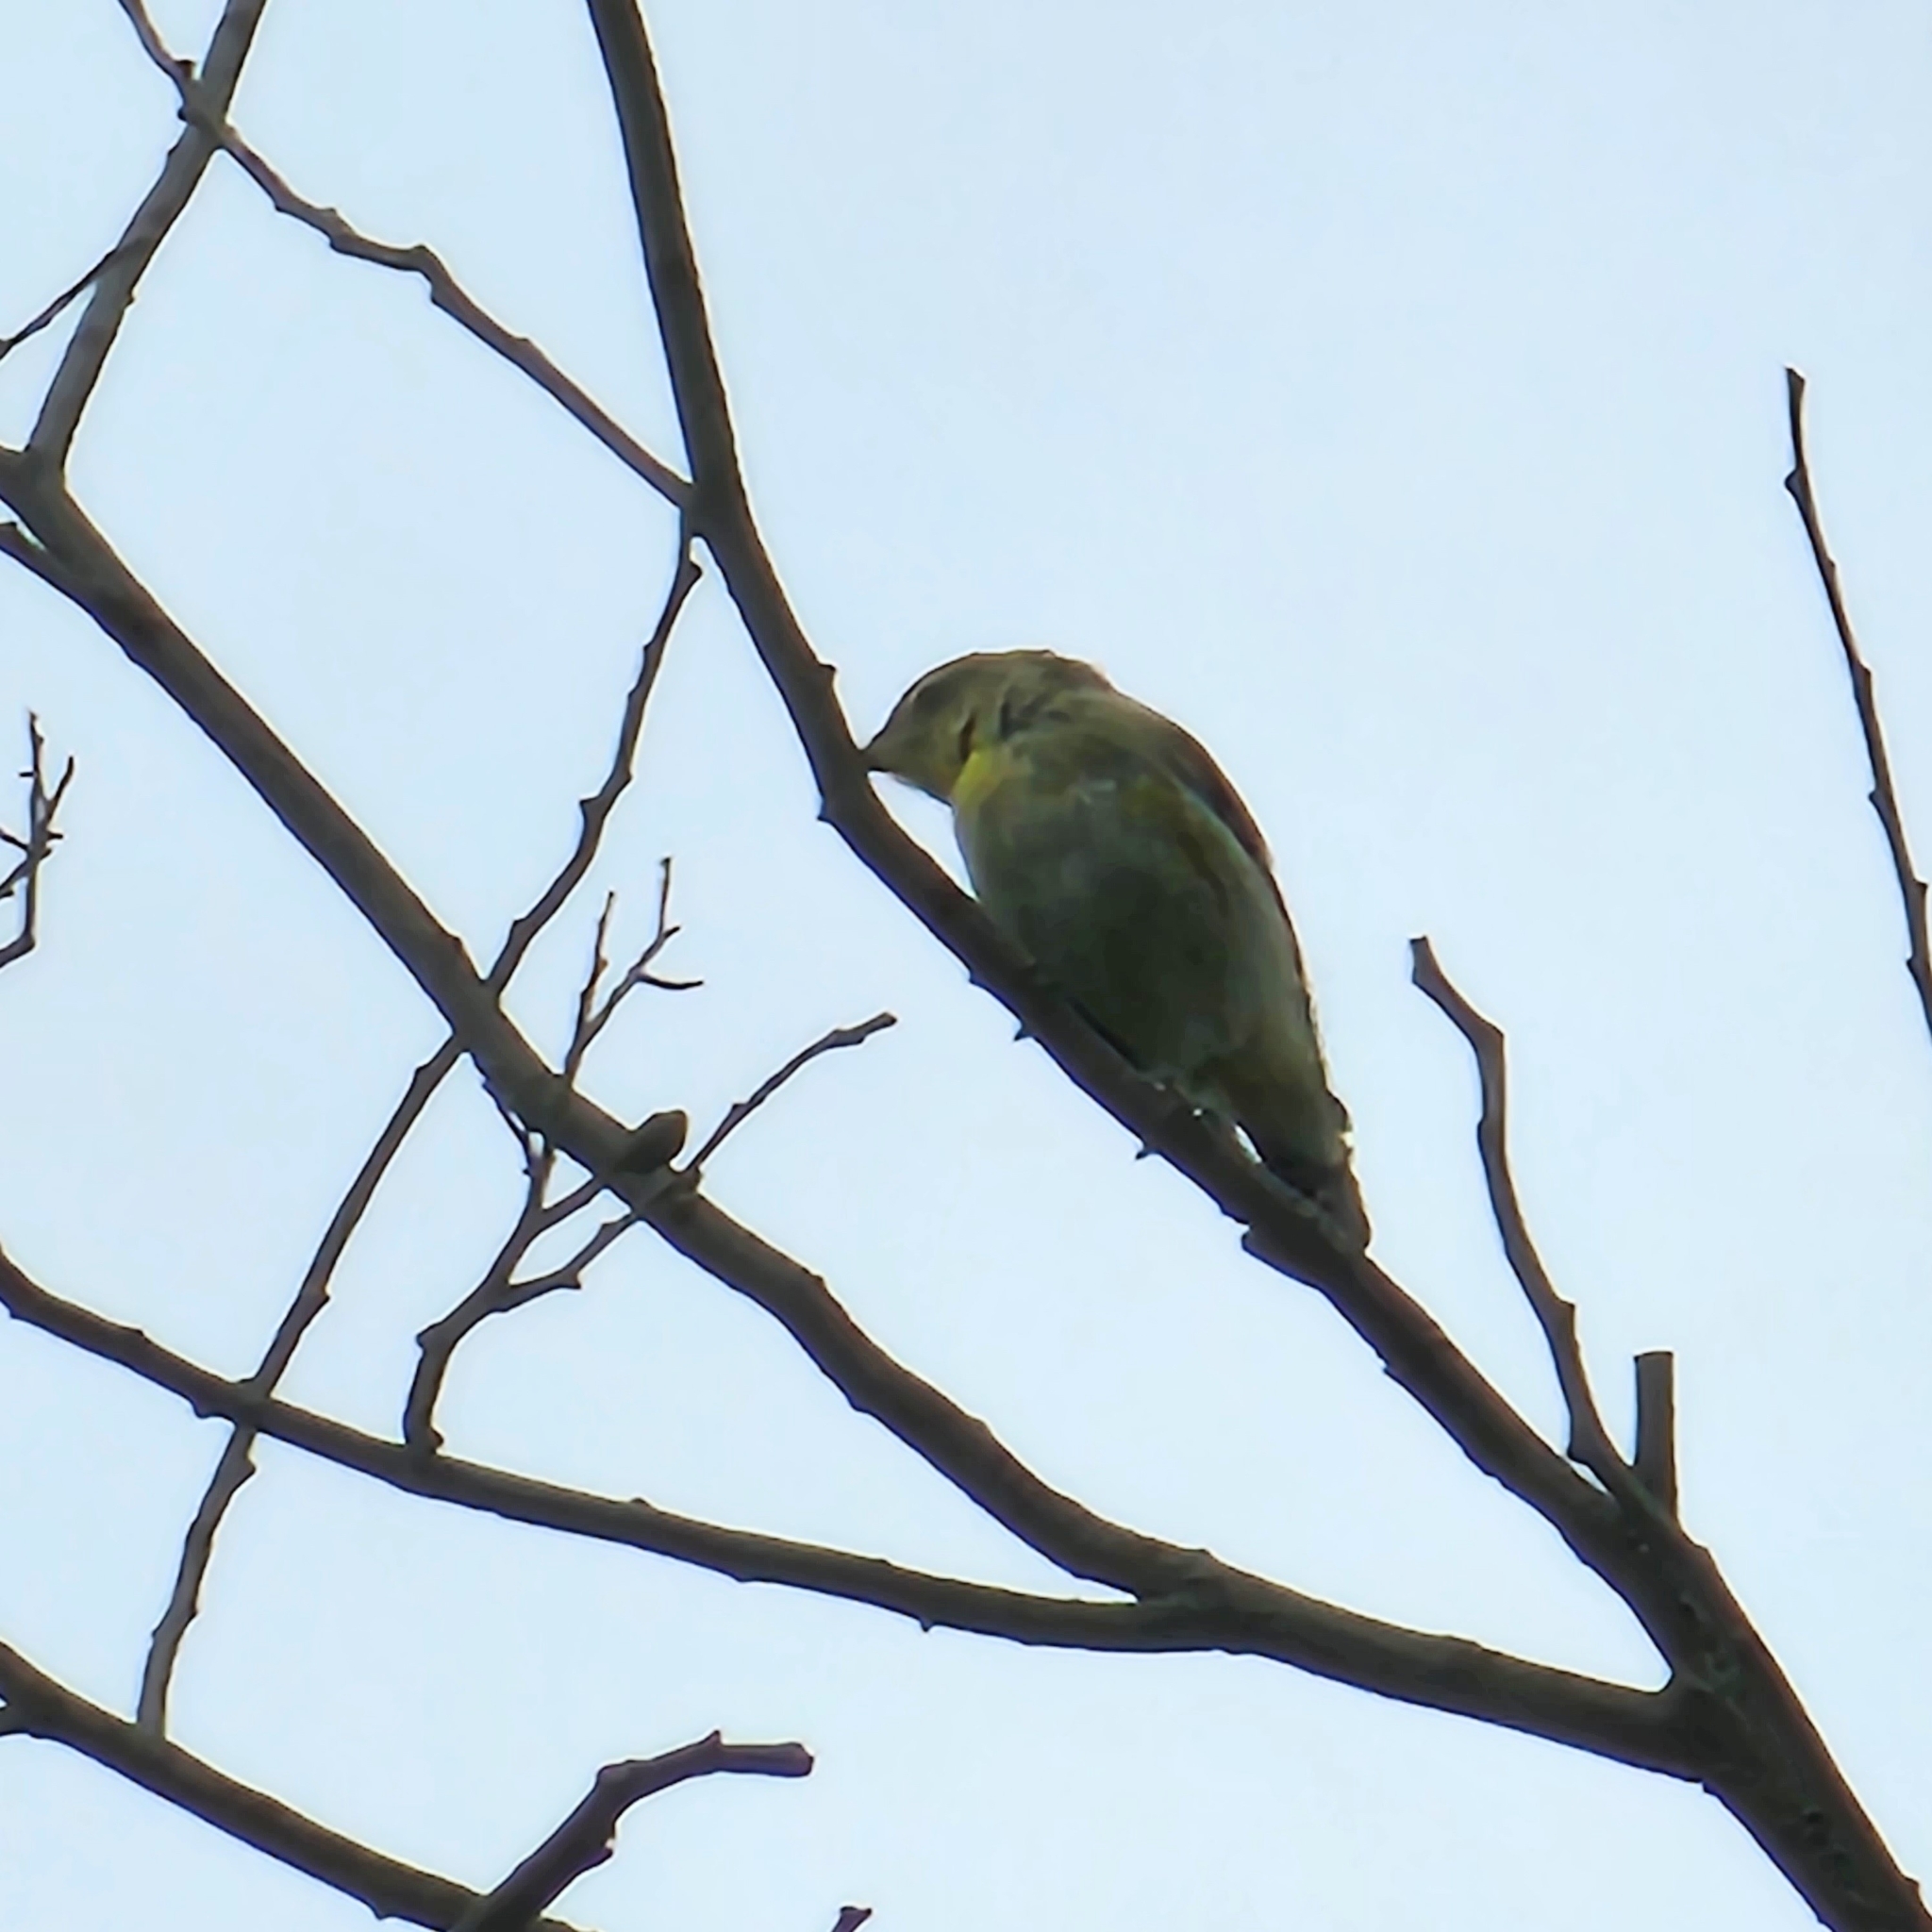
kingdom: Animalia
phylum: Chordata
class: Aves
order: Passeriformes
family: Pardalotidae
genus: Pardalotus
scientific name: Pardalotus striatus
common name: Striated pardalote
